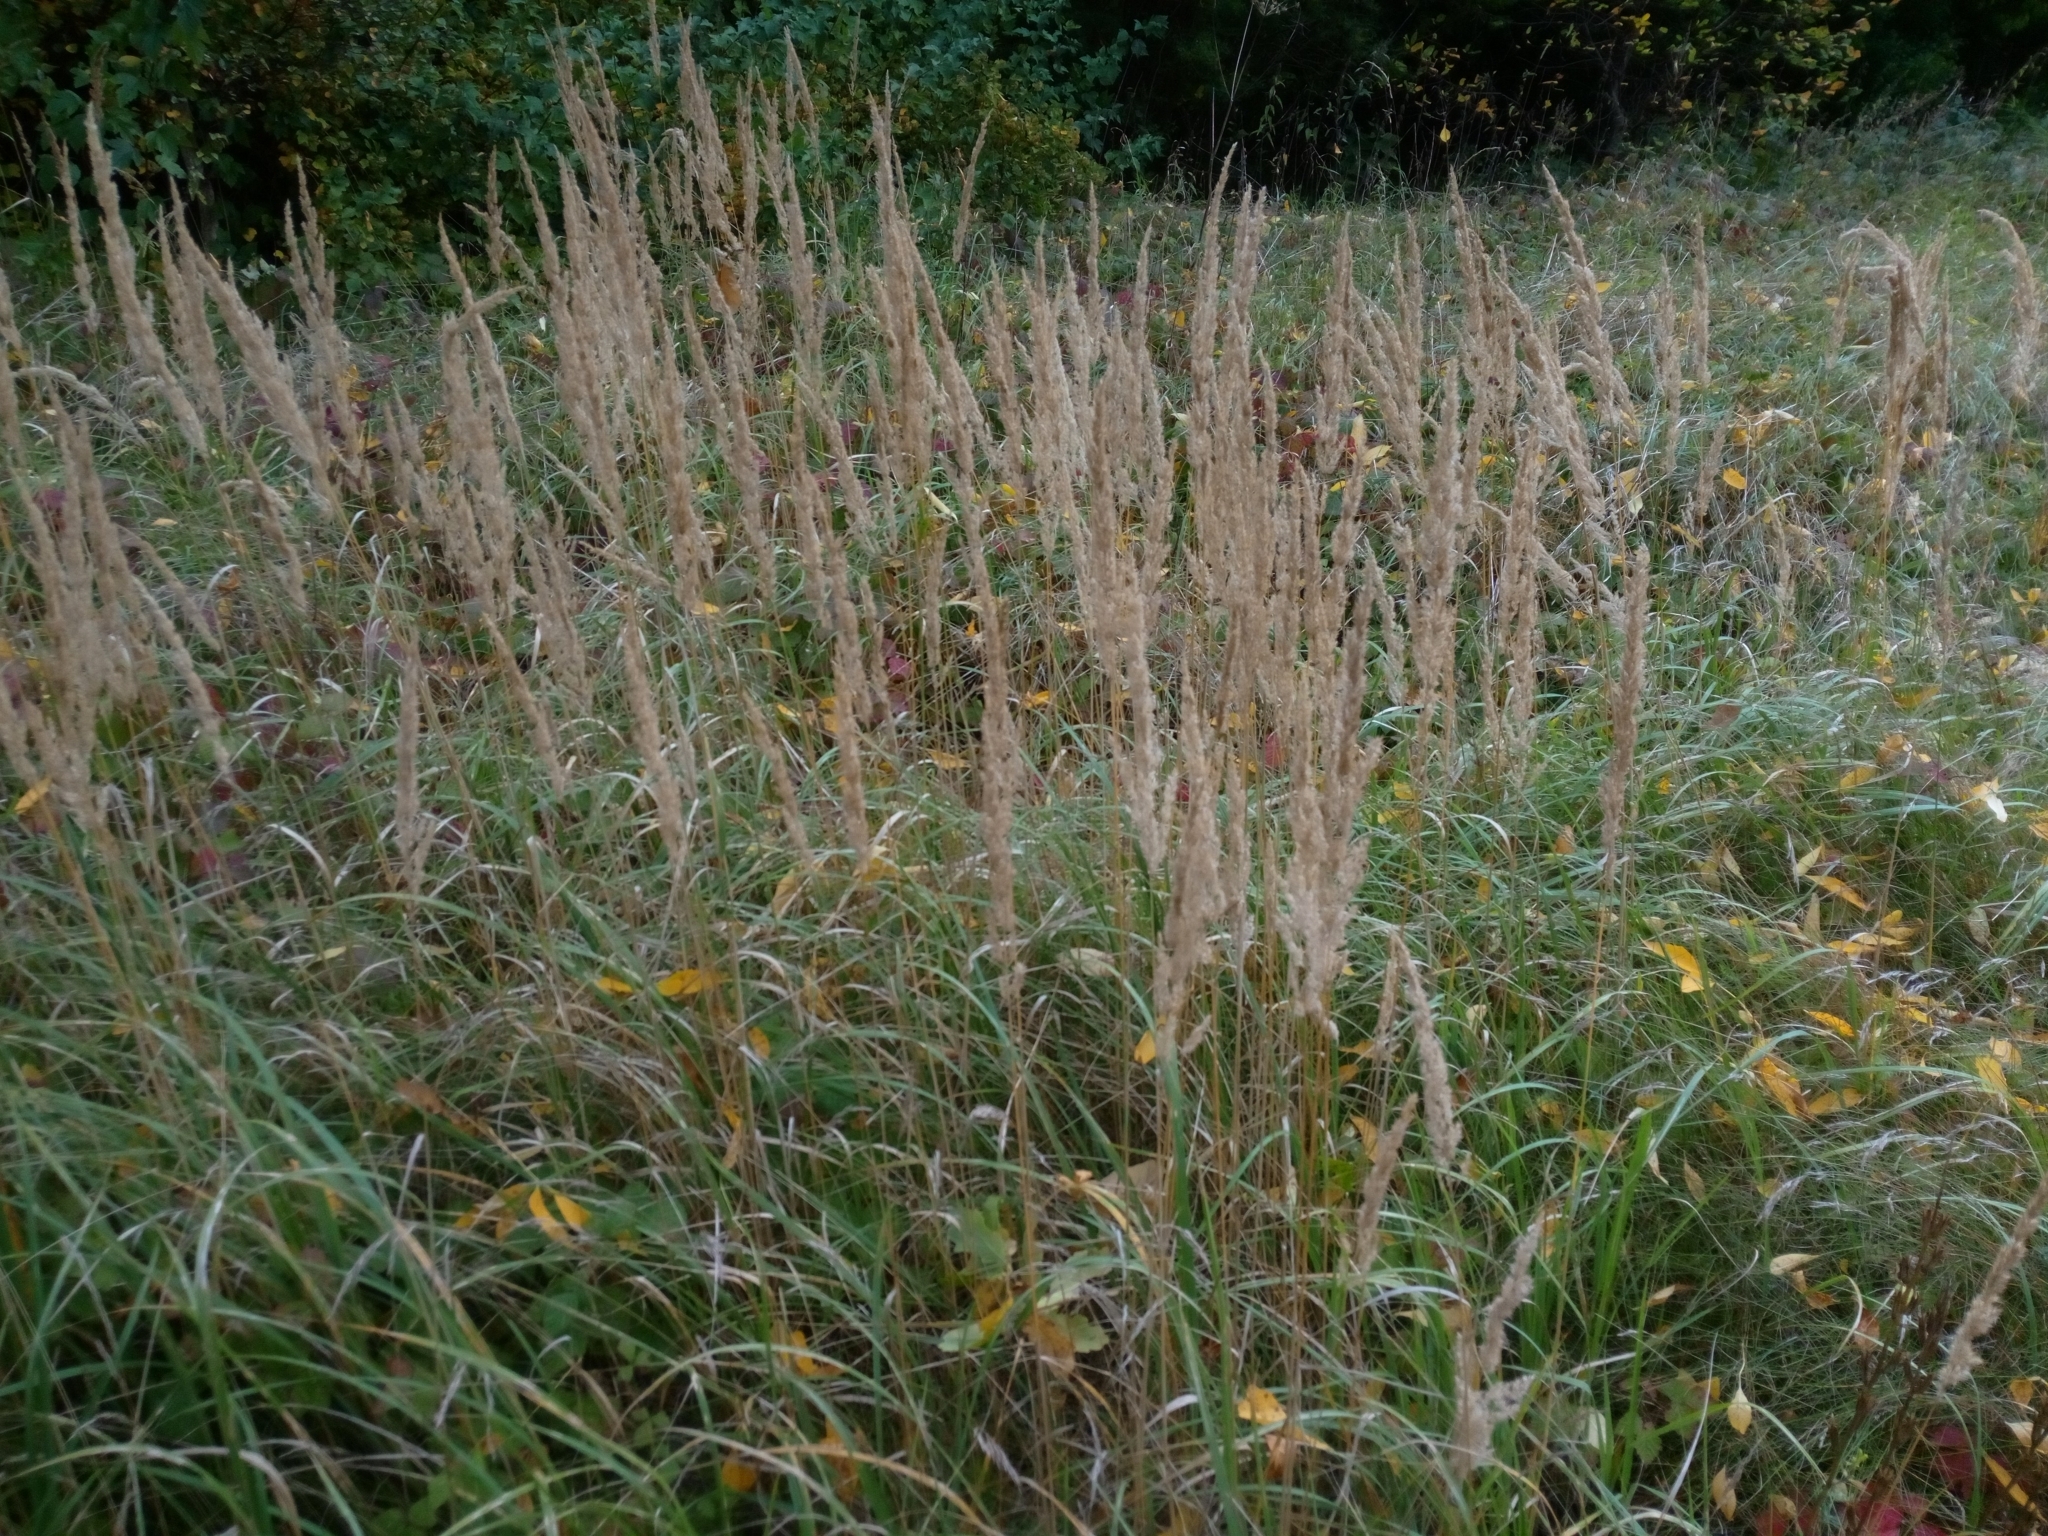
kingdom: Plantae
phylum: Tracheophyta
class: Liliopsida
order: Poales
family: Poaceae
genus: Calamagrostis
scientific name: Calamagrostis epigejos
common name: Wood small-reed
